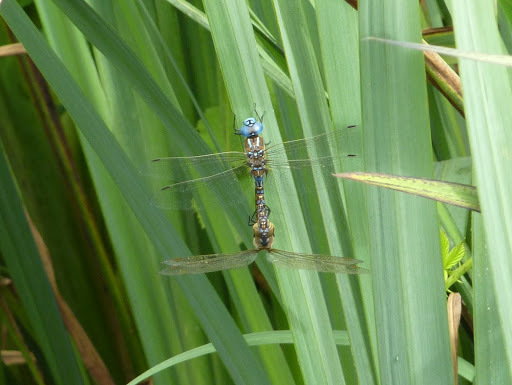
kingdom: Animalia
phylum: Arthropoda
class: Insecta
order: Odonata
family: Aeshnidae
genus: Rhionaeschna
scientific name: Rhionaeschna multicolor
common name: Blue-eyed darner
